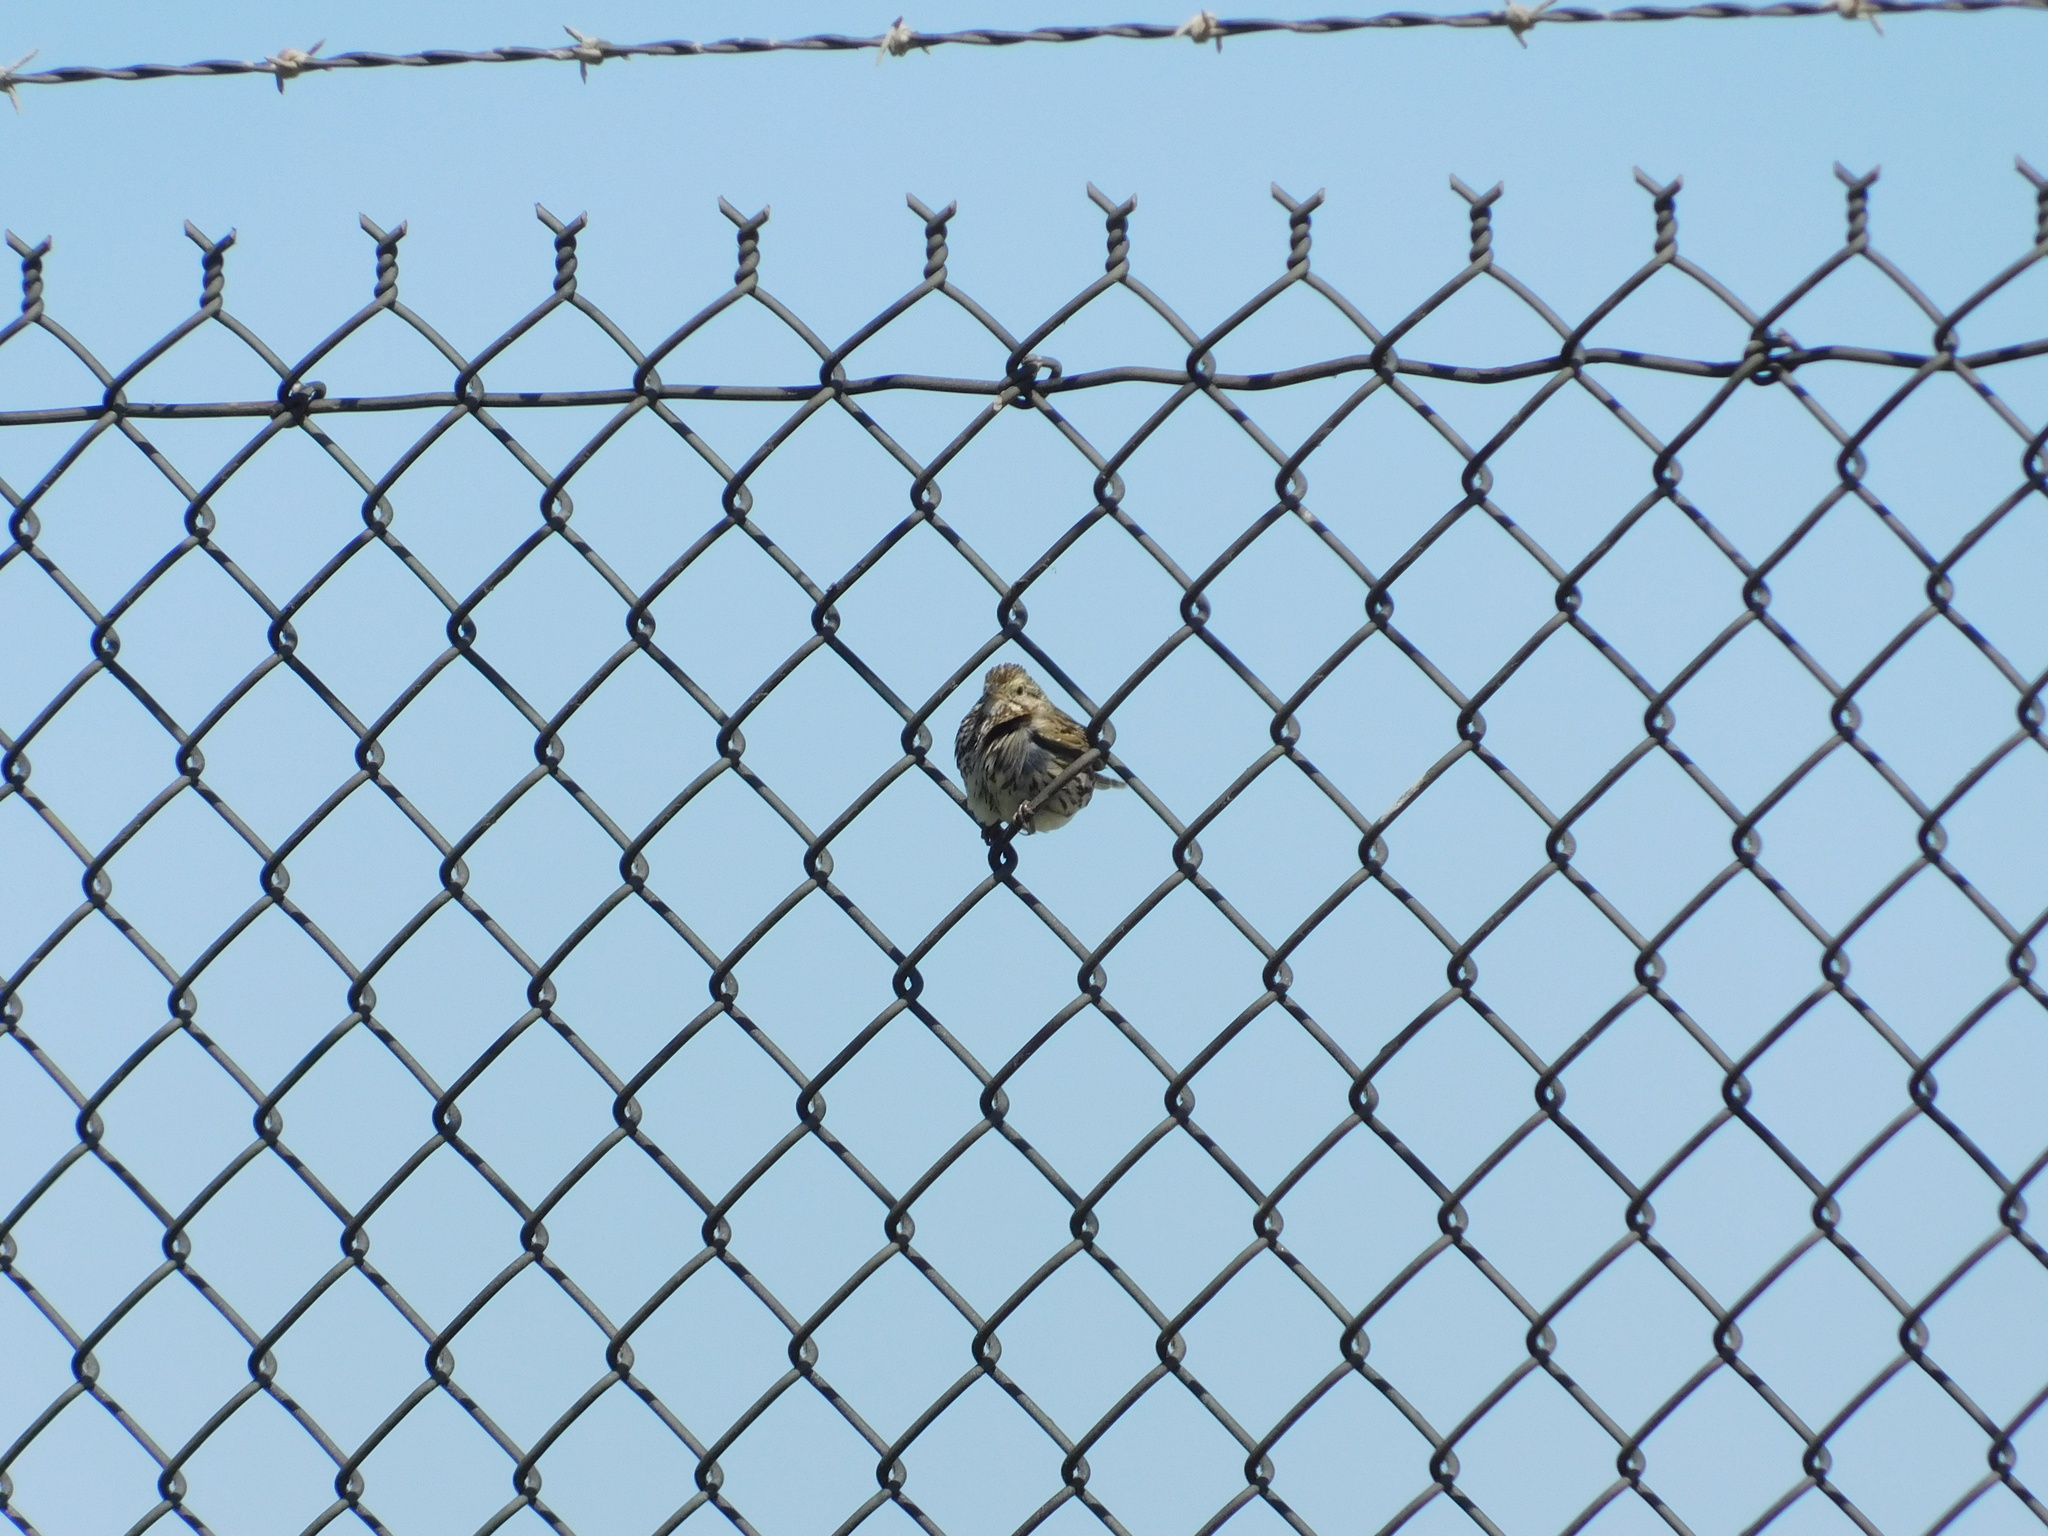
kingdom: Animalia
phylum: Chordata
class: Aves
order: Passeriformes
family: Passerellidae
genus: Passerculus
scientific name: Passerculus sandwichensis
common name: Savannah sparrow
